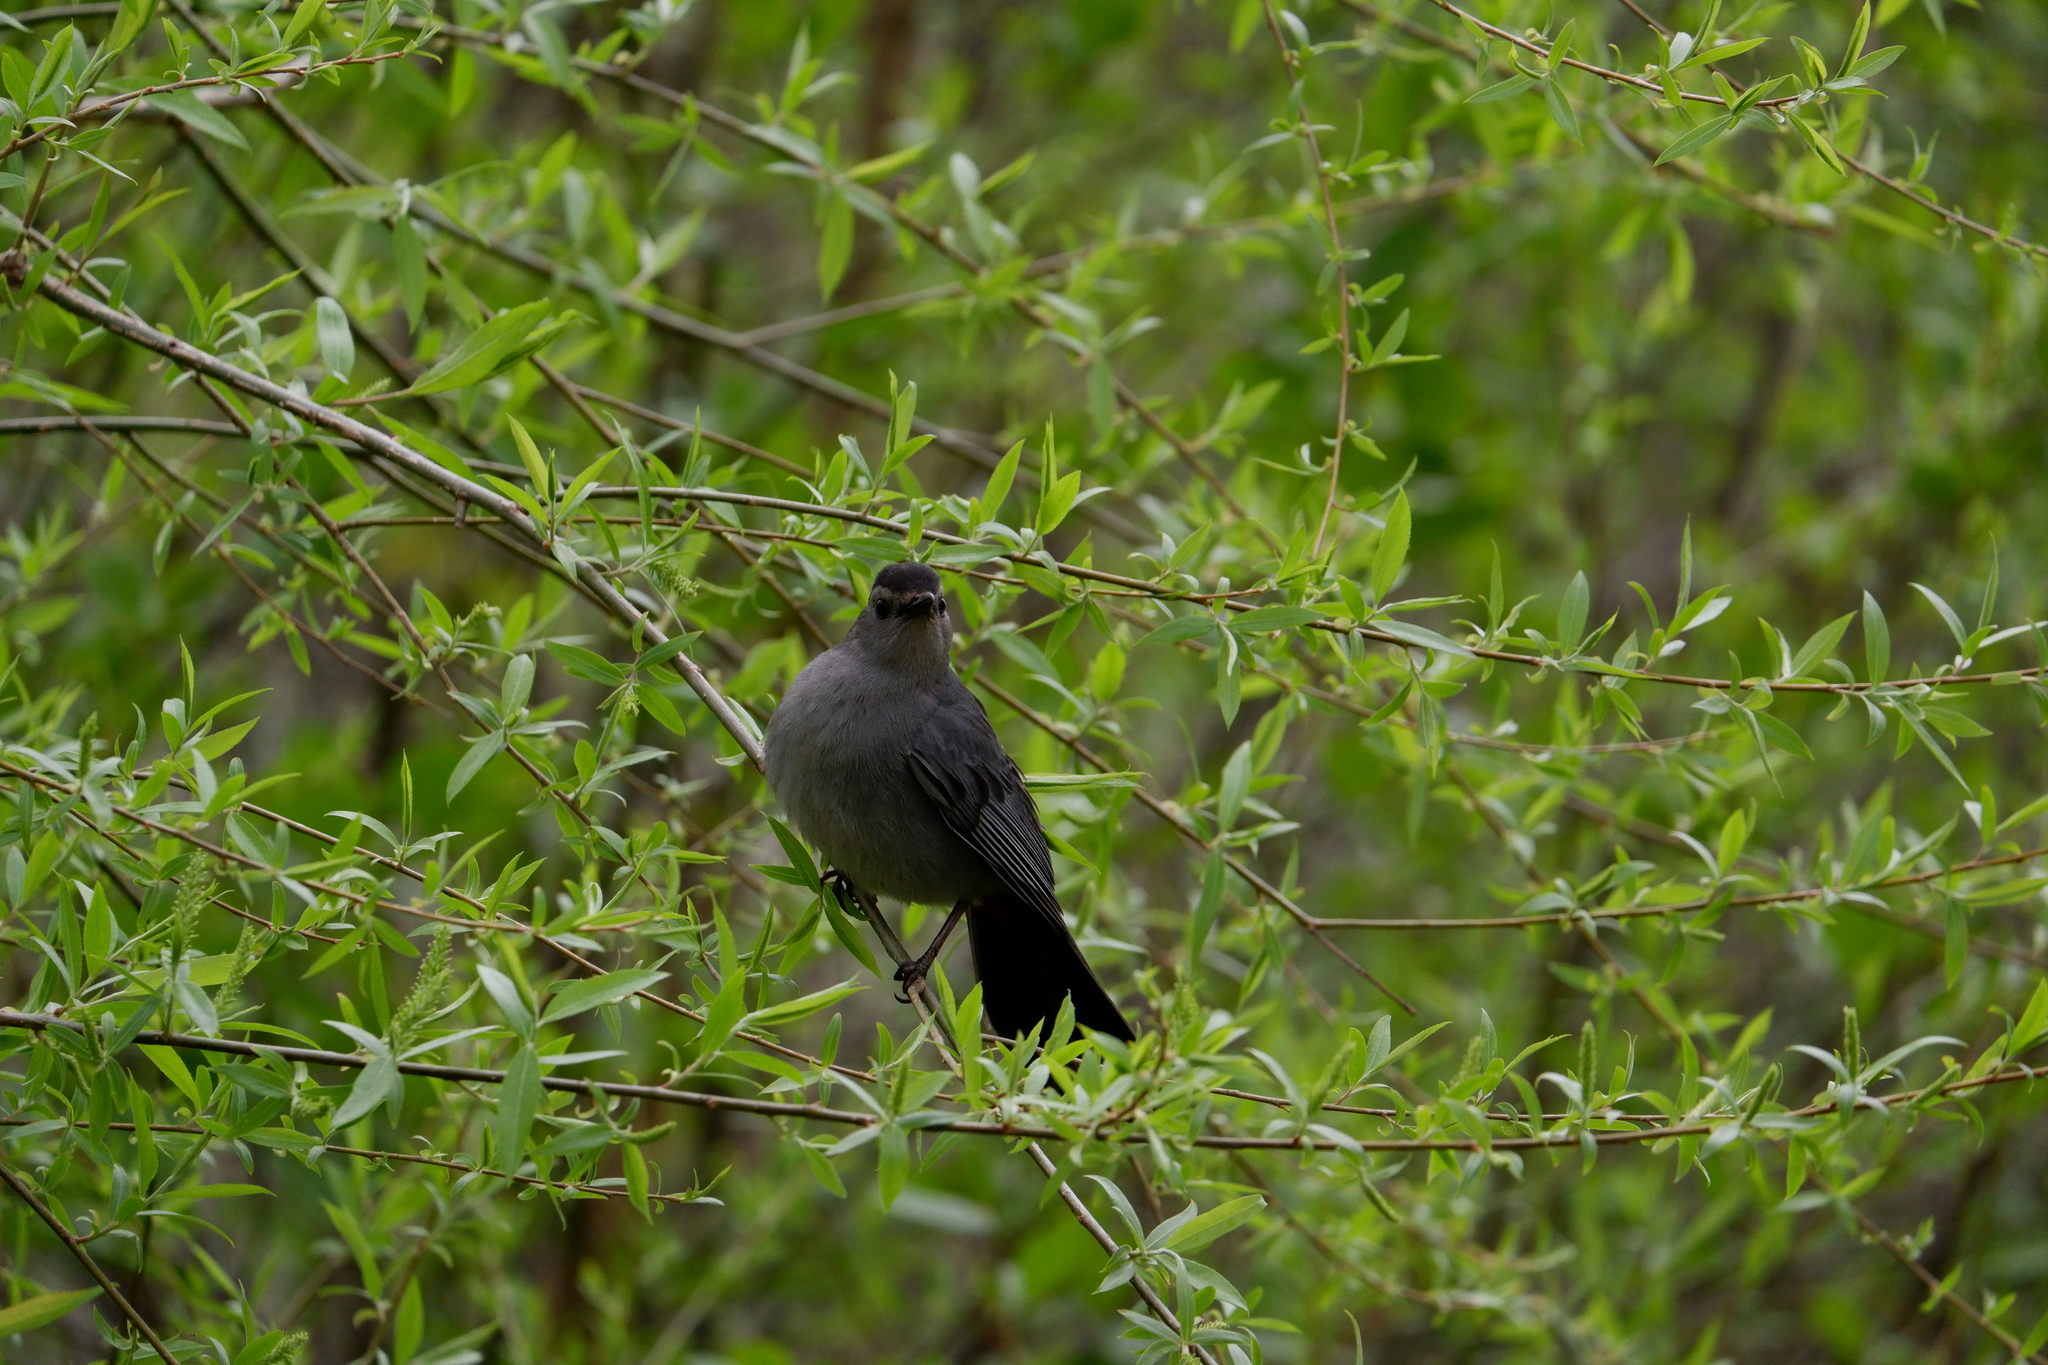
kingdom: Animalia
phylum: Chordata
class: Aves
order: Passeriformes
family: Mimidae
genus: Dumetella
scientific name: Dumetella carolinensis
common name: Gray catbird
